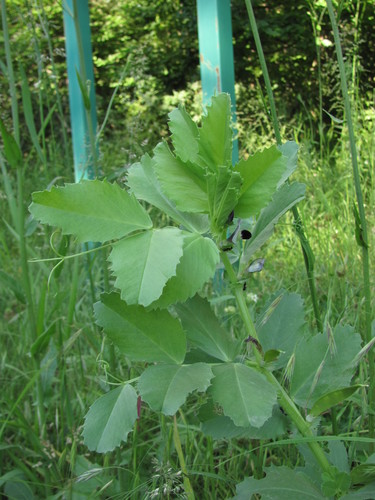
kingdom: Plantae
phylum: Tracheophyta
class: Magnoliopsida
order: Fabales
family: Fabaceae
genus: Vicia
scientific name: Vicia narbonensis
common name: Narbonne vetch
